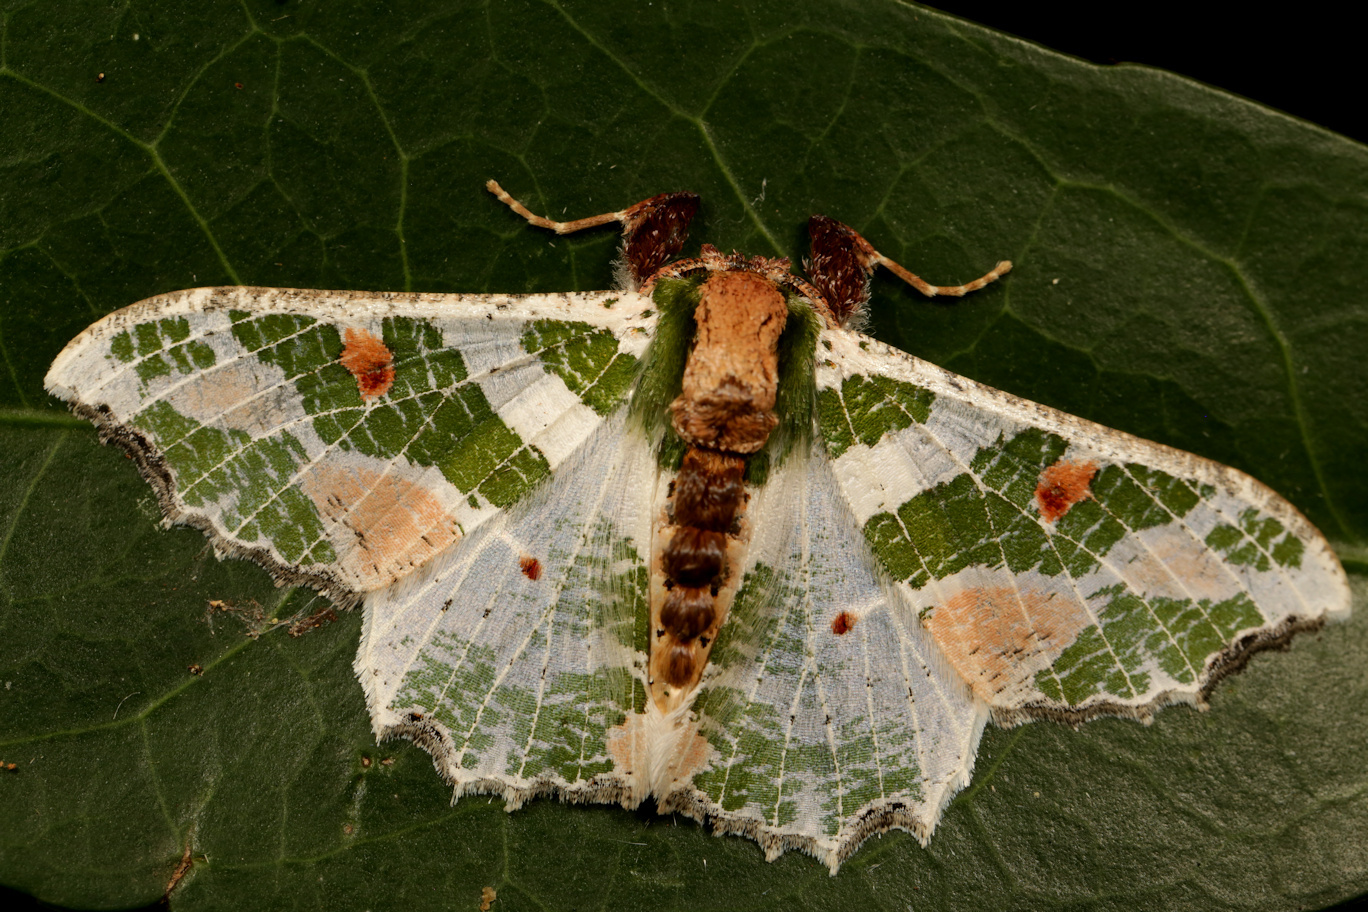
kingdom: Animalia
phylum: Arthropoda
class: Insecta
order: Lepidoptera
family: Geometridae
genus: Victoria
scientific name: Victoria fuscithorax
